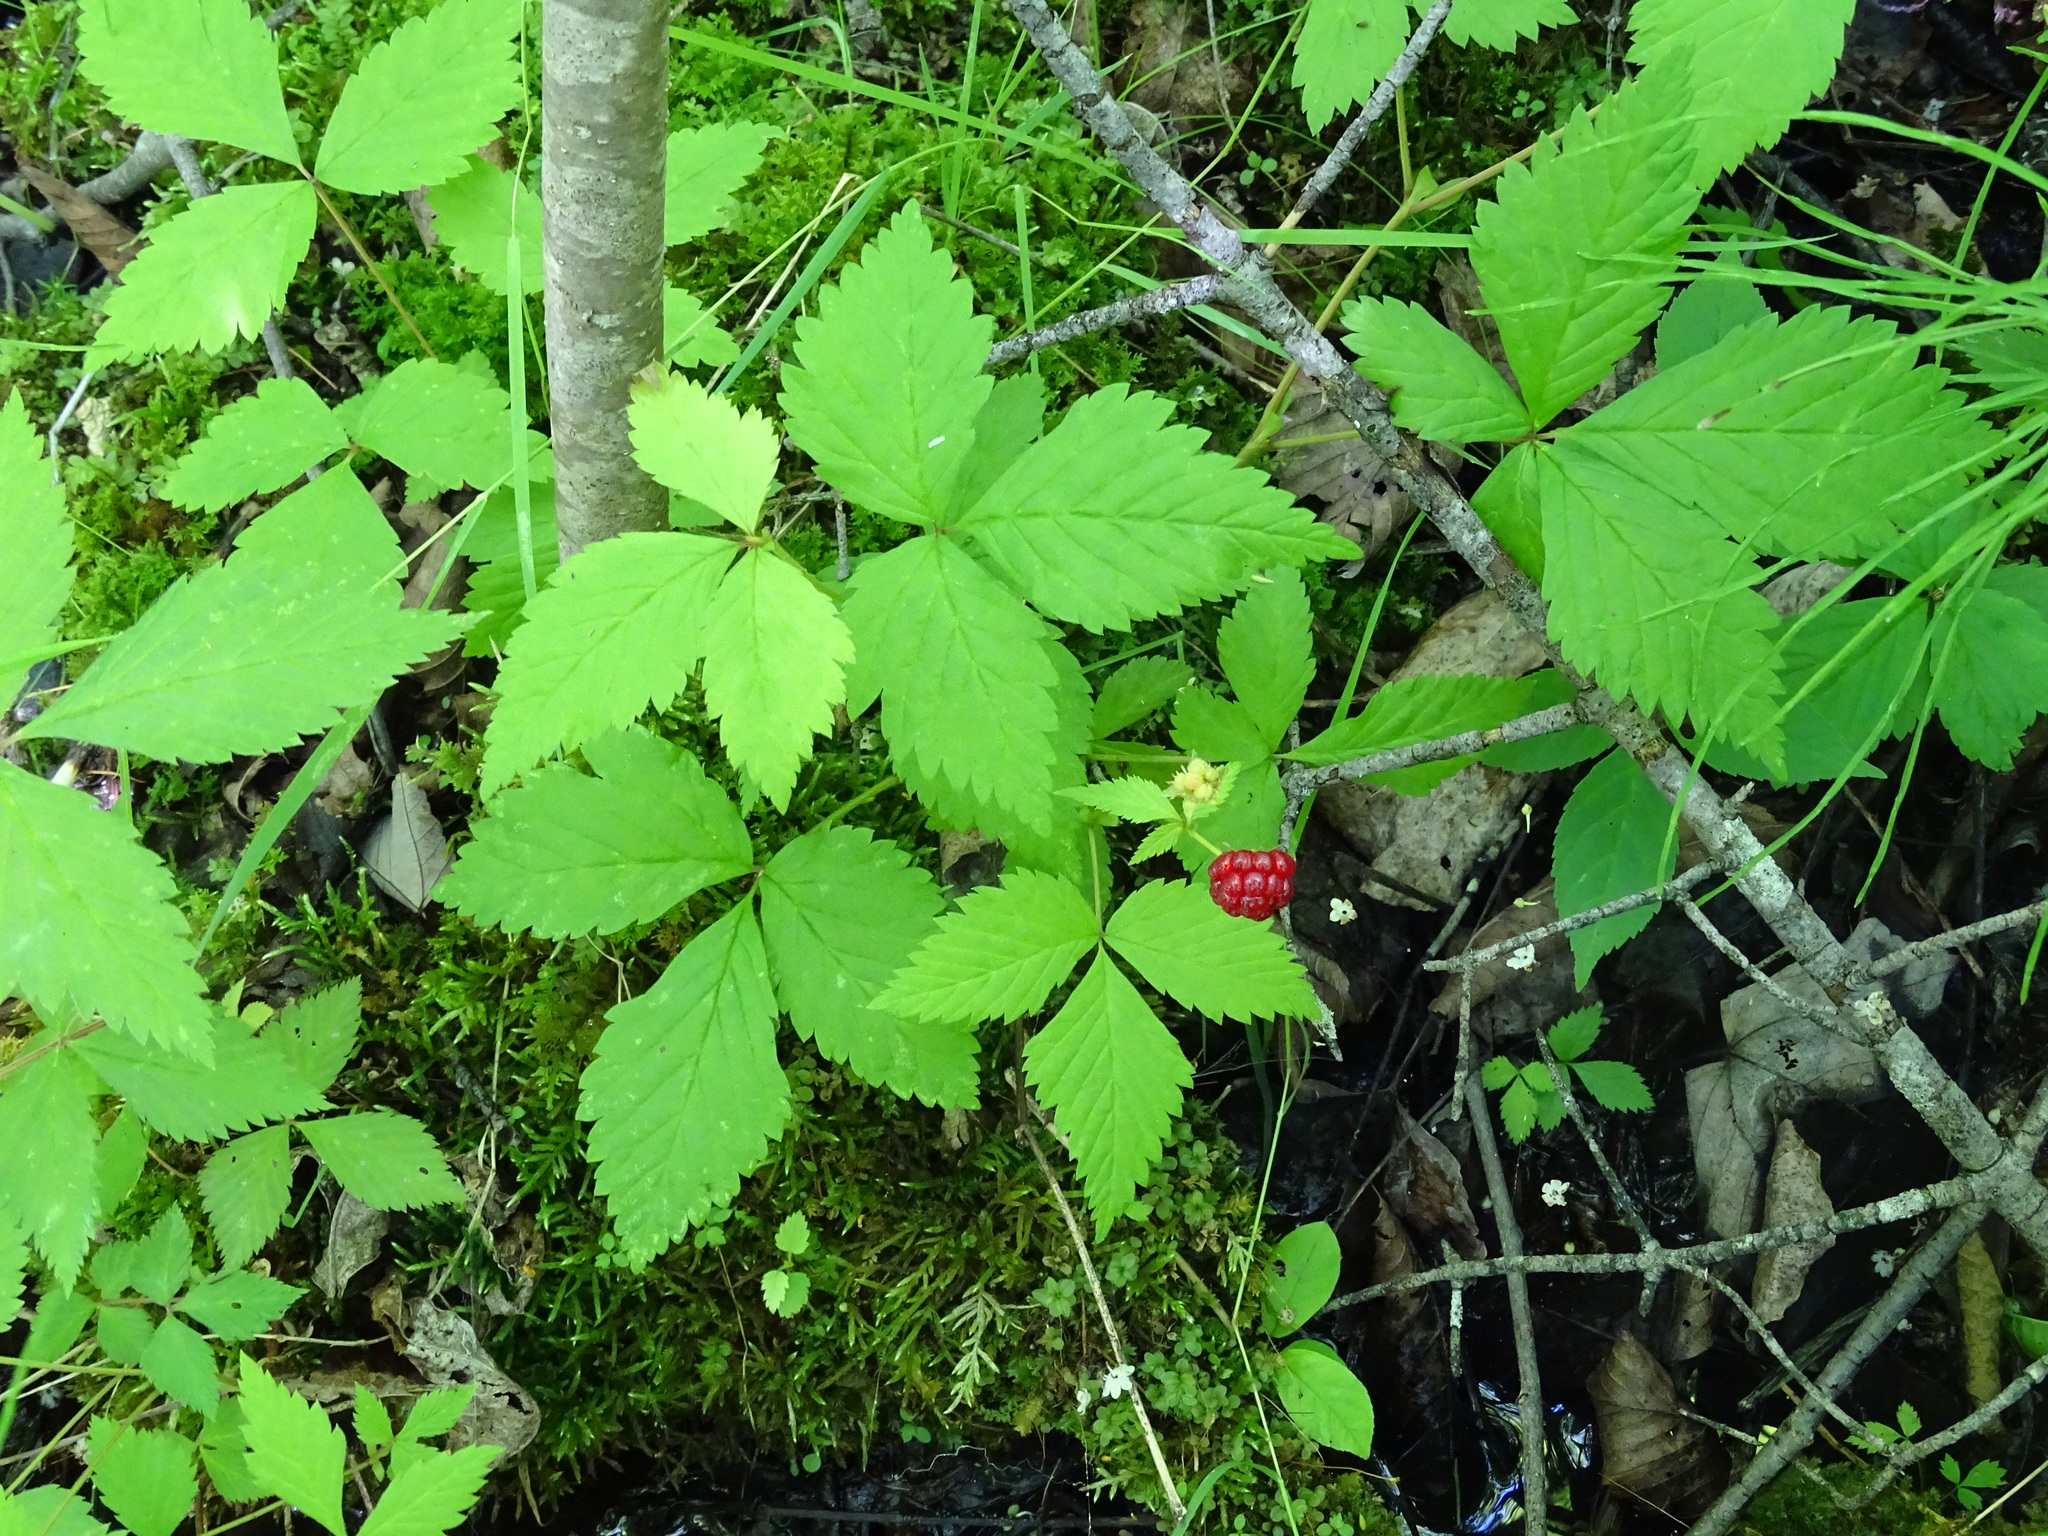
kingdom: Plantae
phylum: Tracheophyta
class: Magnoliopsida
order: Rosales
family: Rosaceae
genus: Rubus
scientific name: Rubus pubescens
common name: Dwarf raspberry
